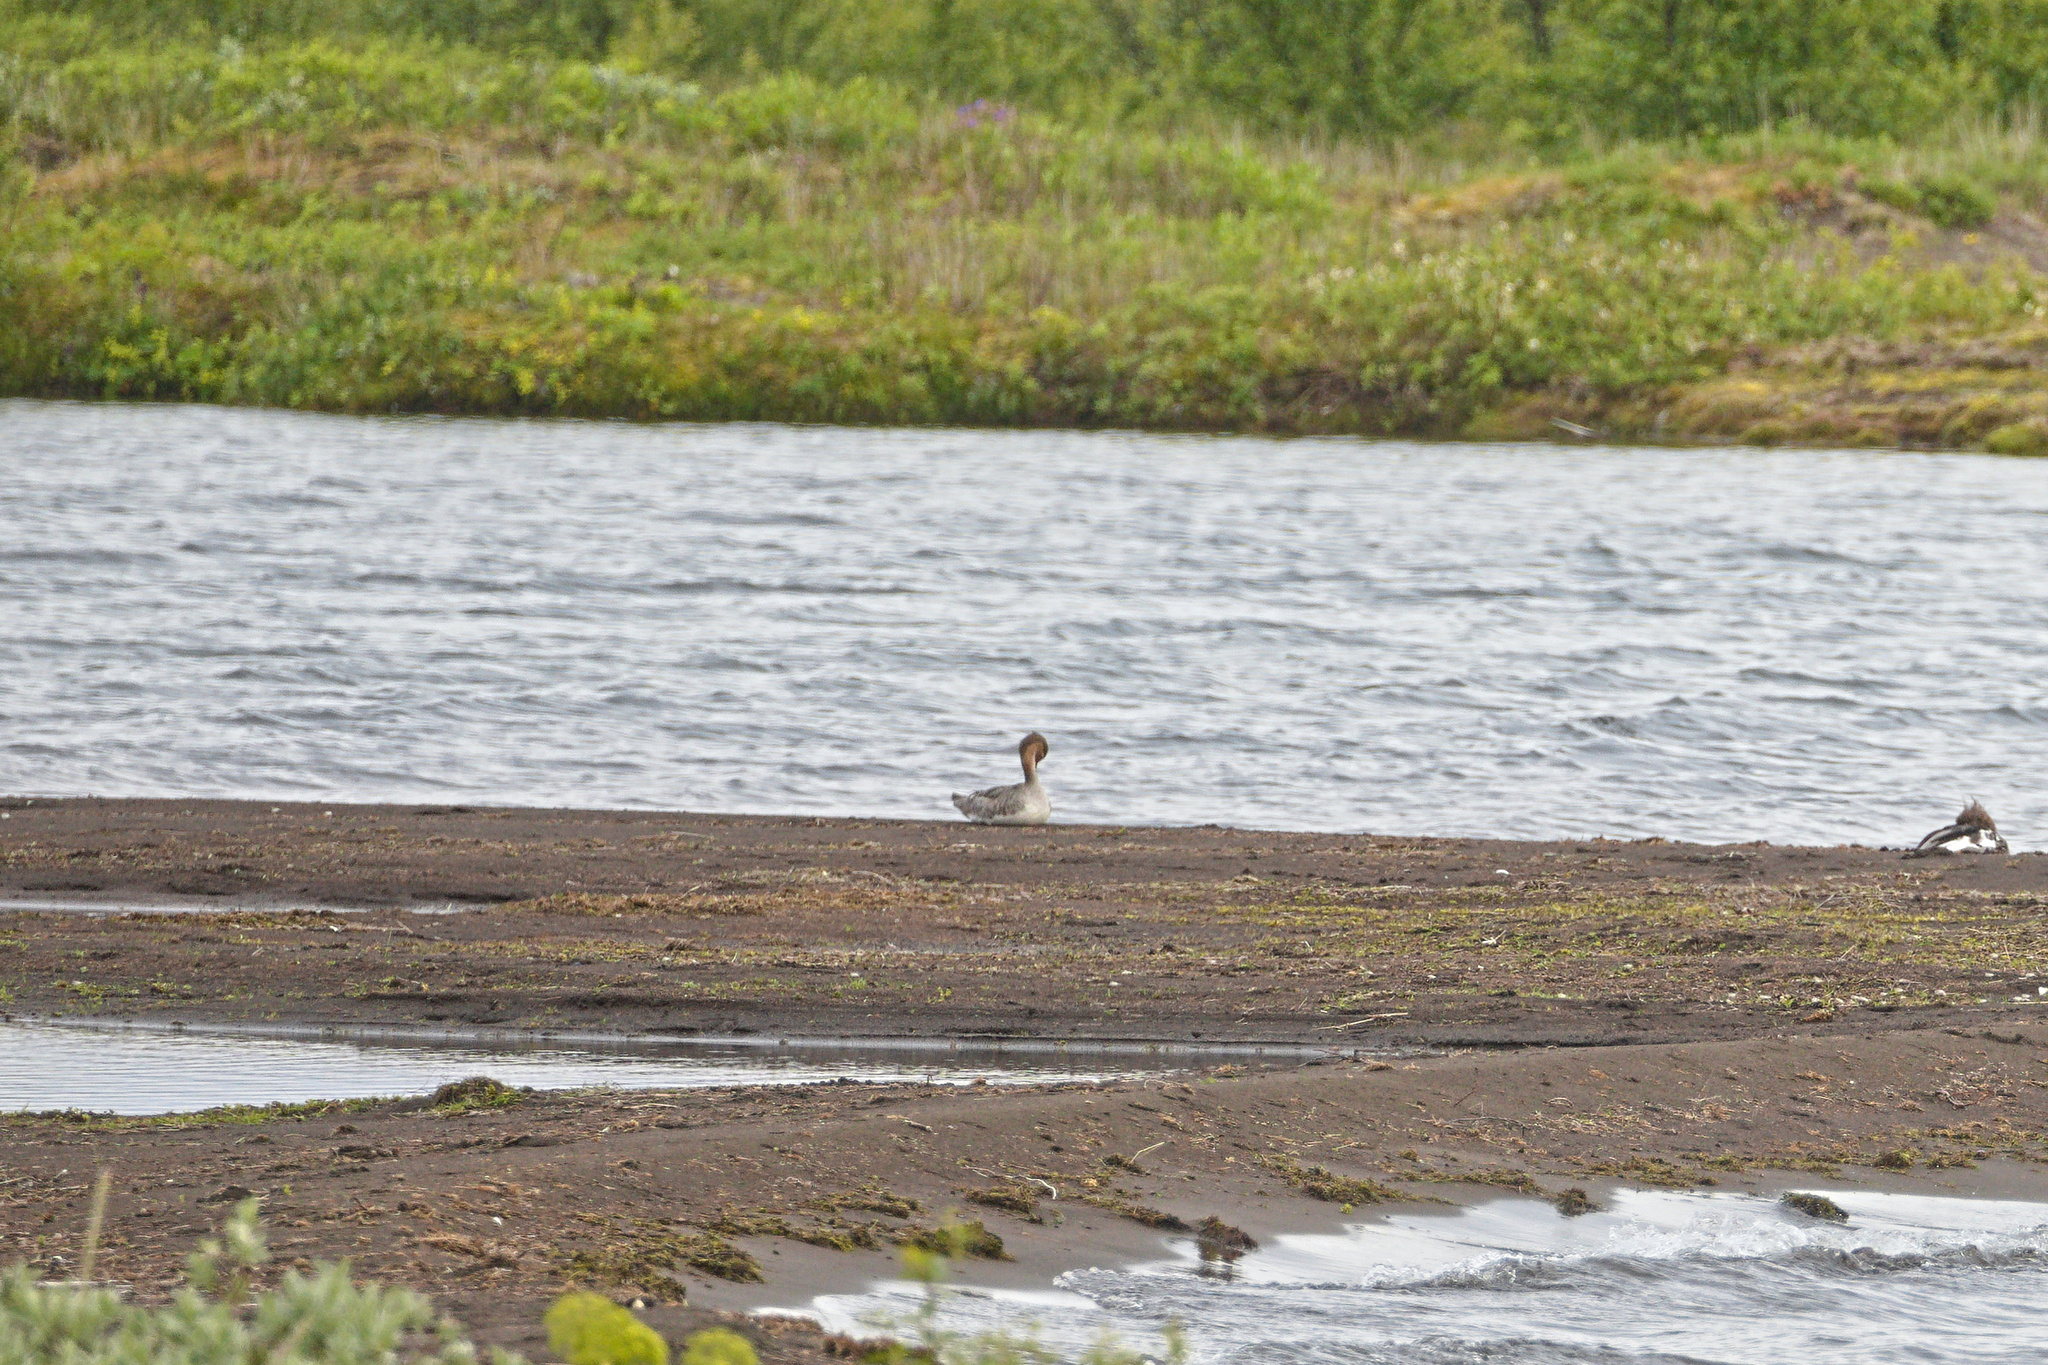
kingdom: Animalia
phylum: Chordata
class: Aves
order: Anseriformes
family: Anatidae
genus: Mergus
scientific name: Mergus serrator
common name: Red-breasted merganser
